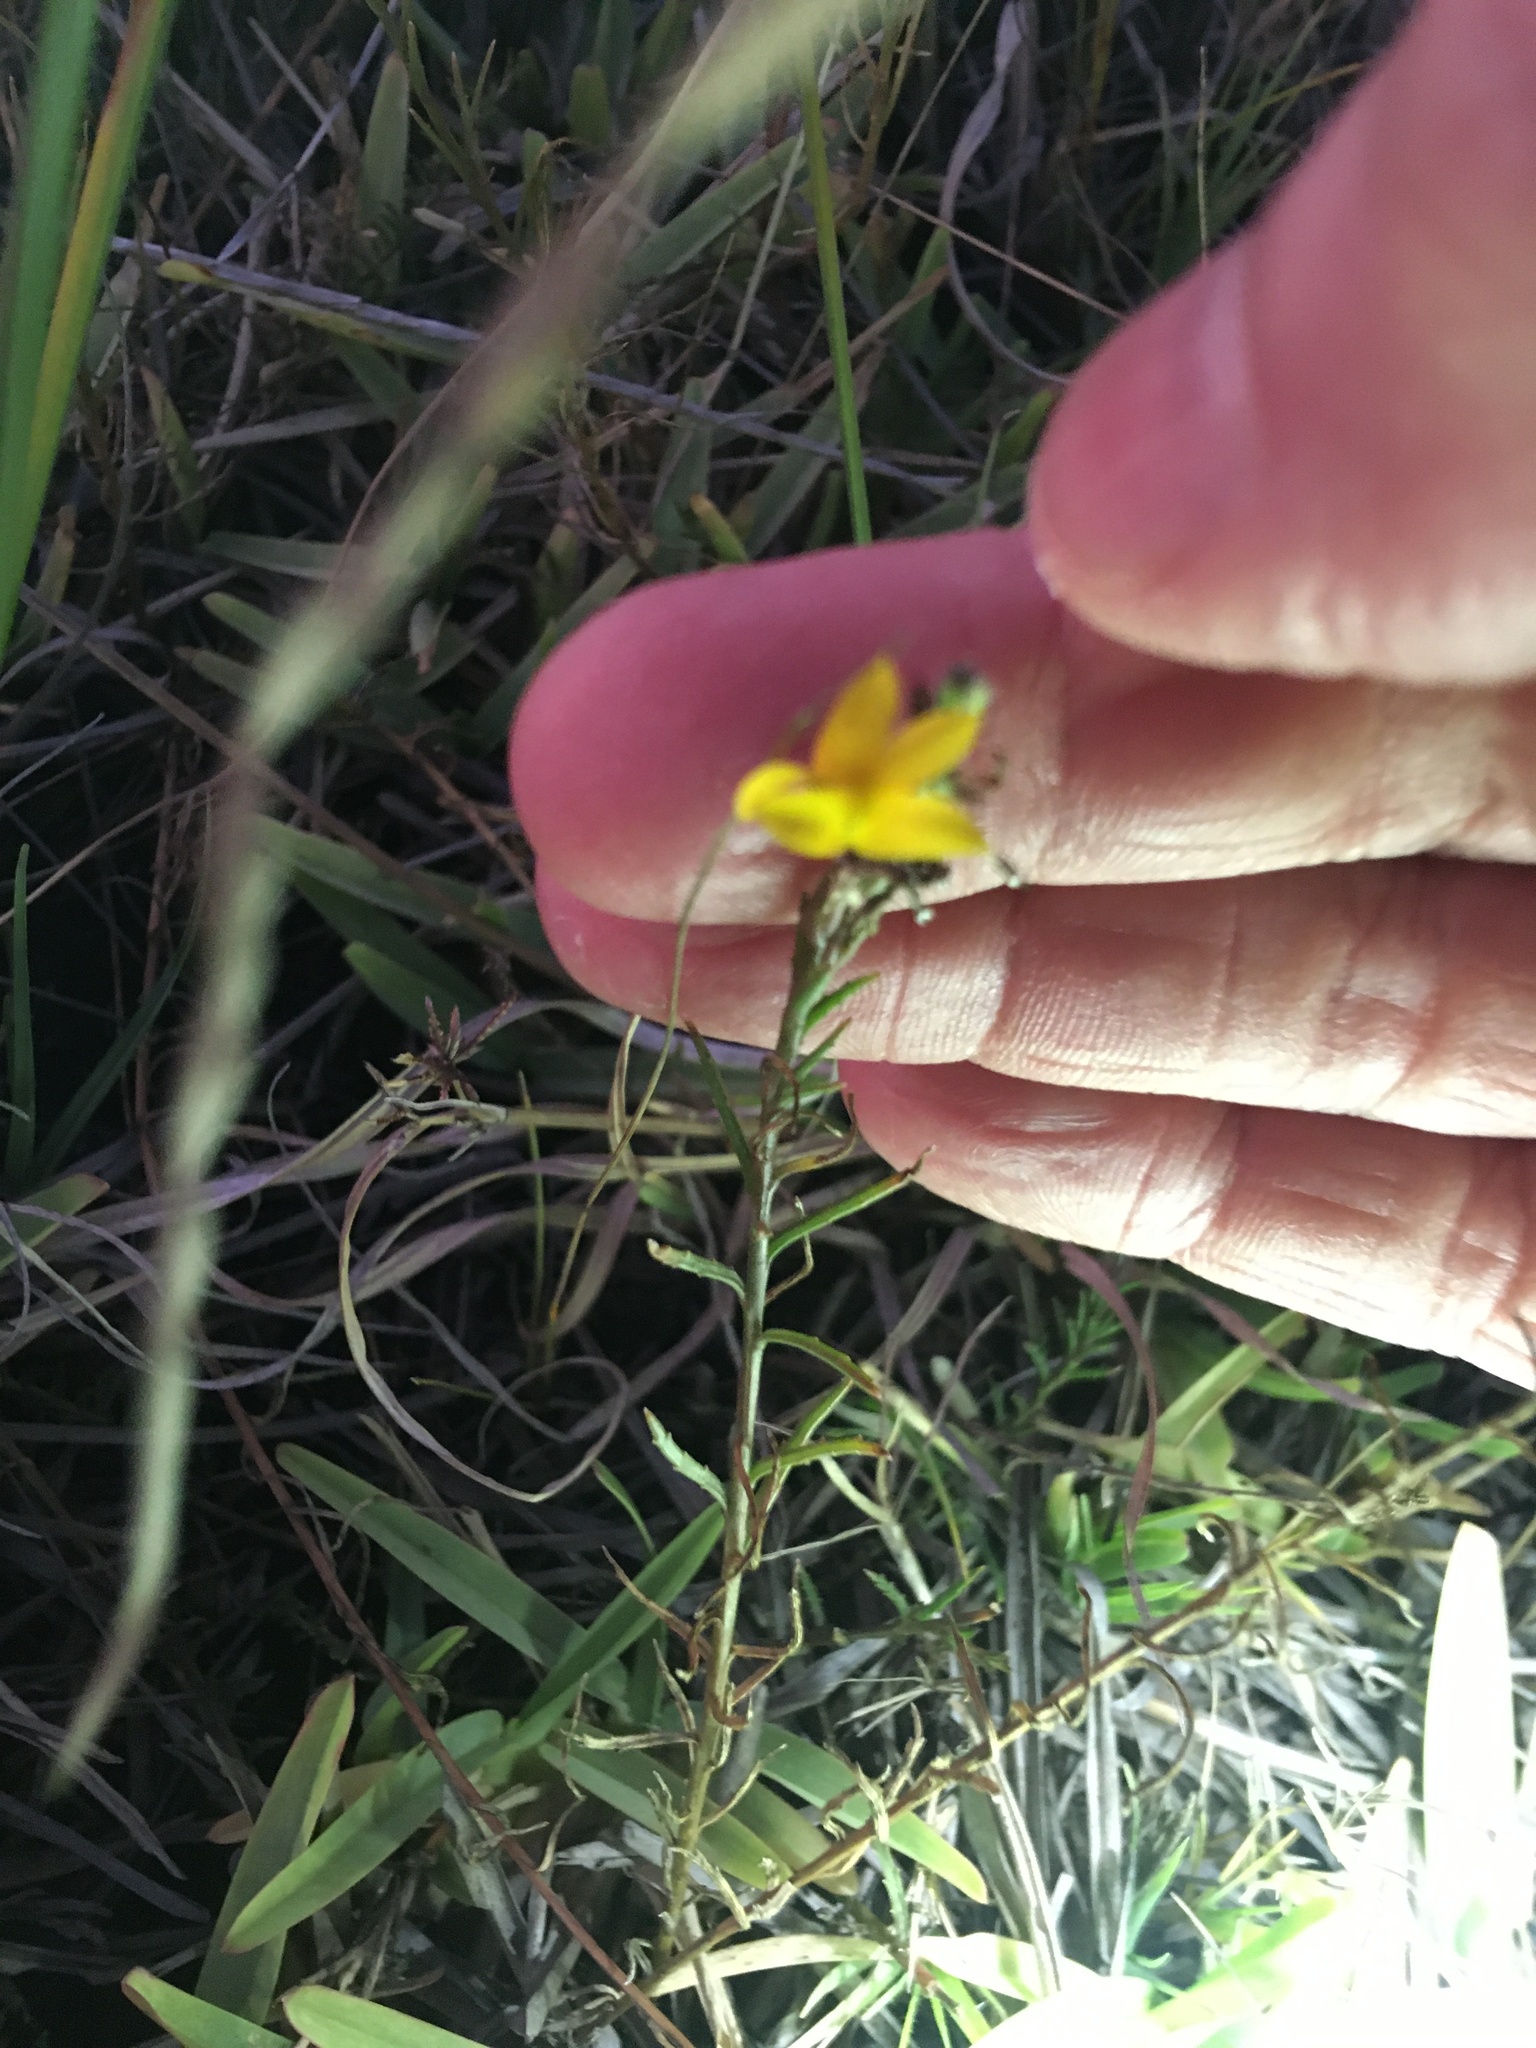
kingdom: Plantae
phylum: Tracheophyta
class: Magnoliopsida
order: Asterales
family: Campanulaceae
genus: Monopsis
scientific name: Monopsis lutea
